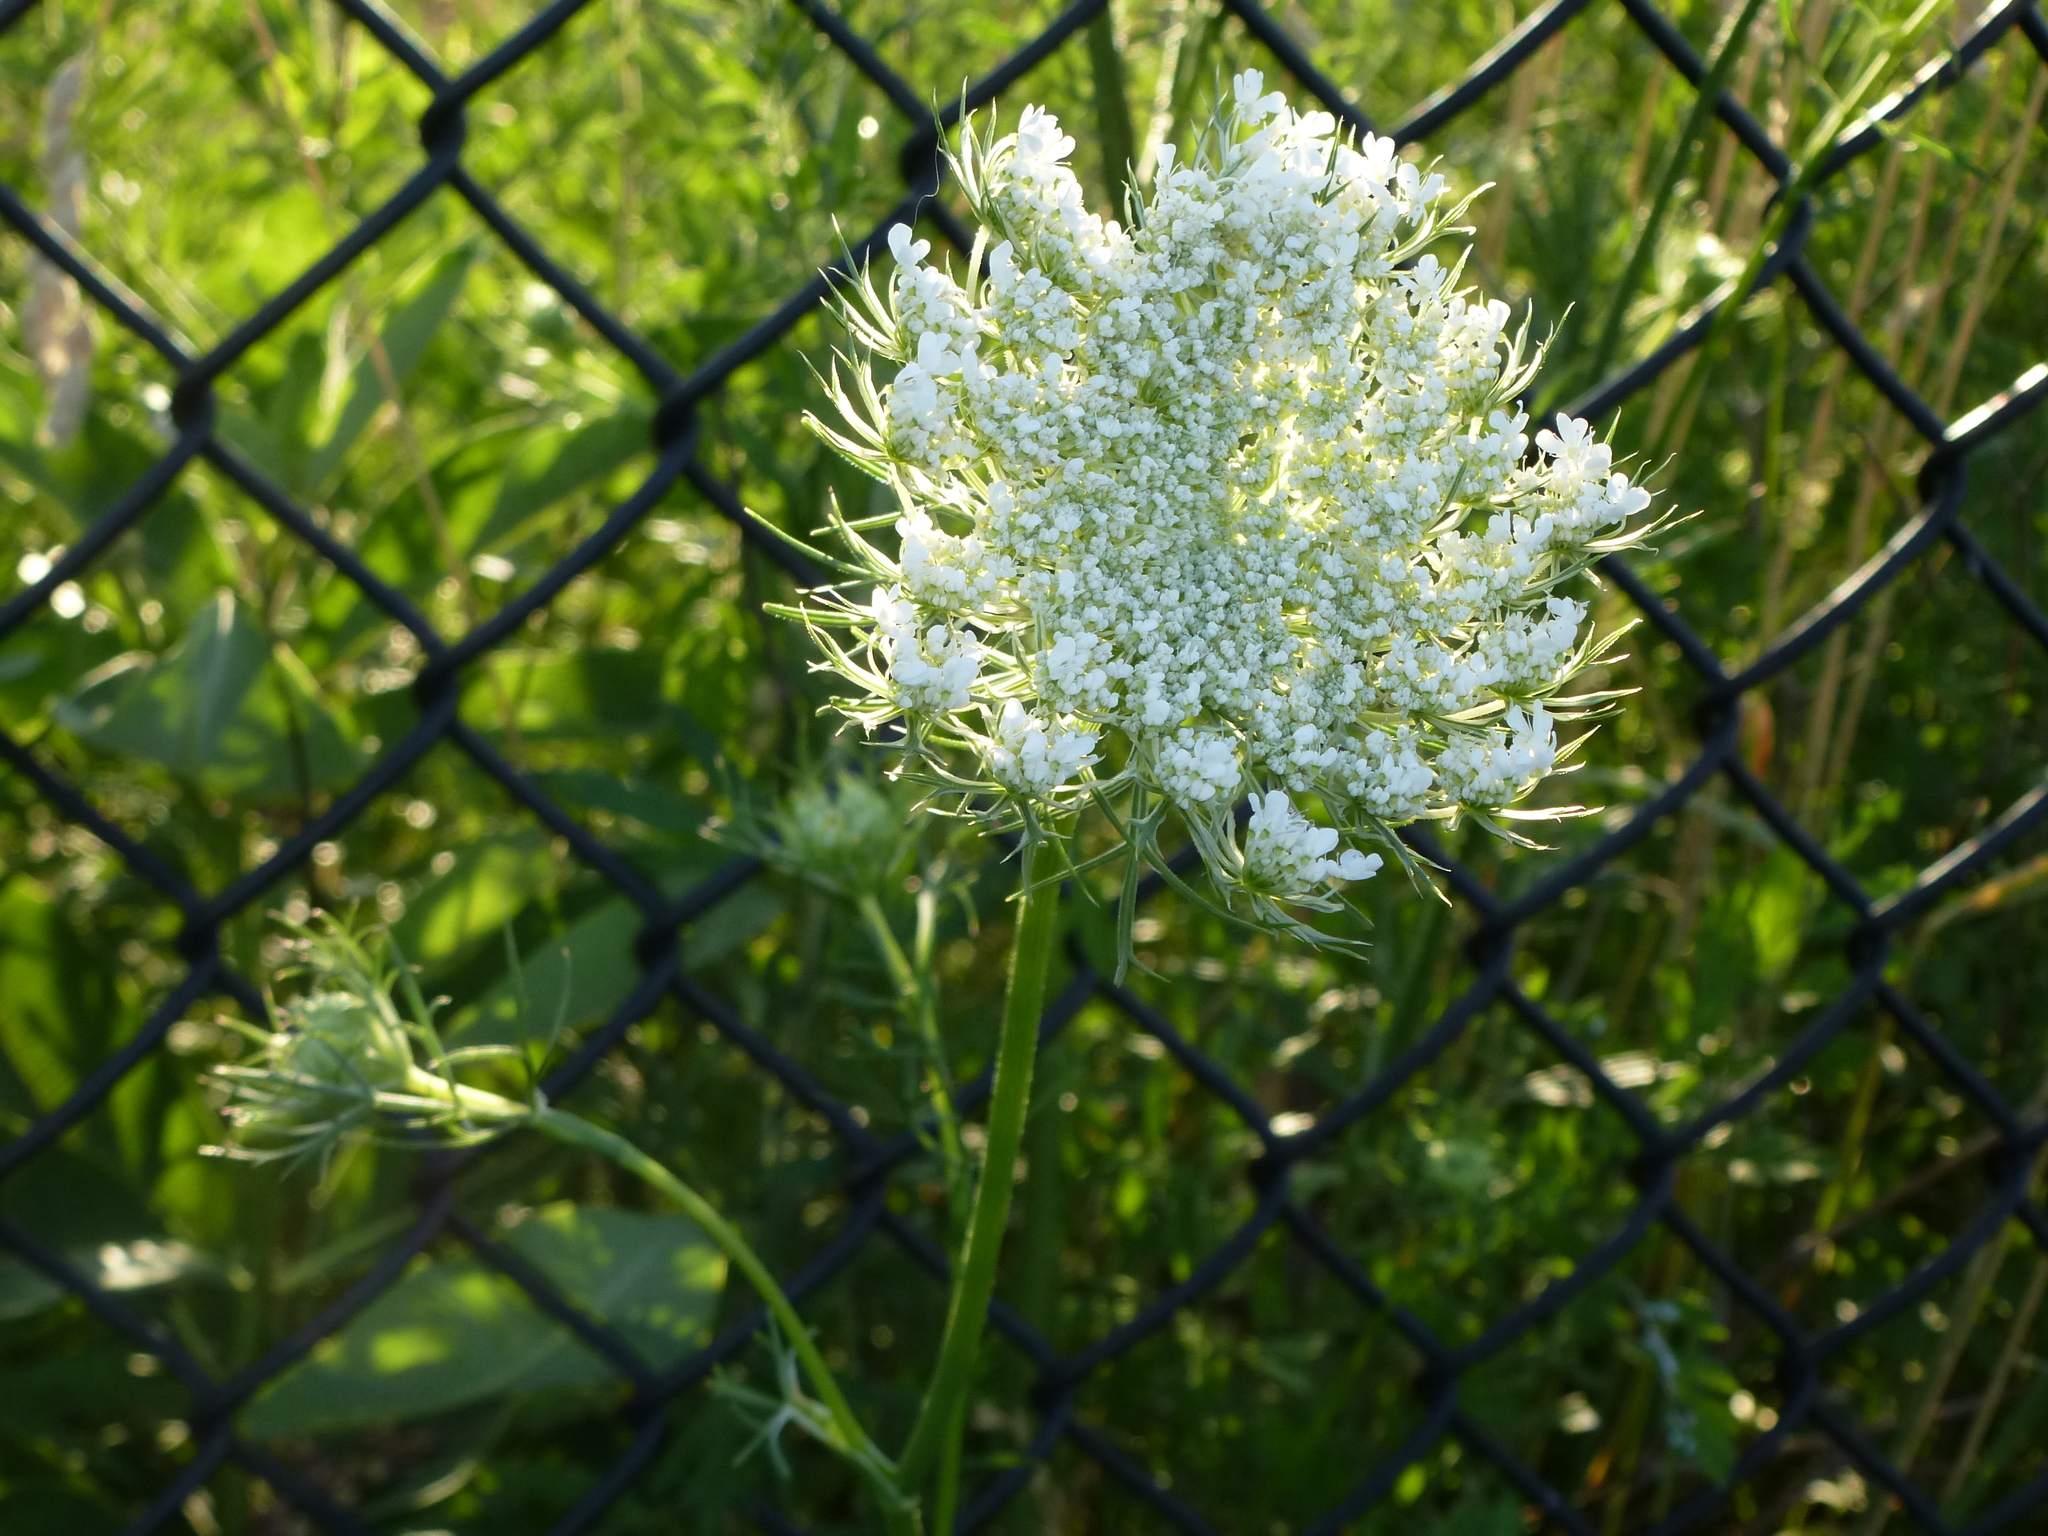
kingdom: Plantae
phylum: Tracheophyta
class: Magnoliopsida
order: Apiales
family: Apiaceae
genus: Daucus
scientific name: Daucus carota
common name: Wild carrot
